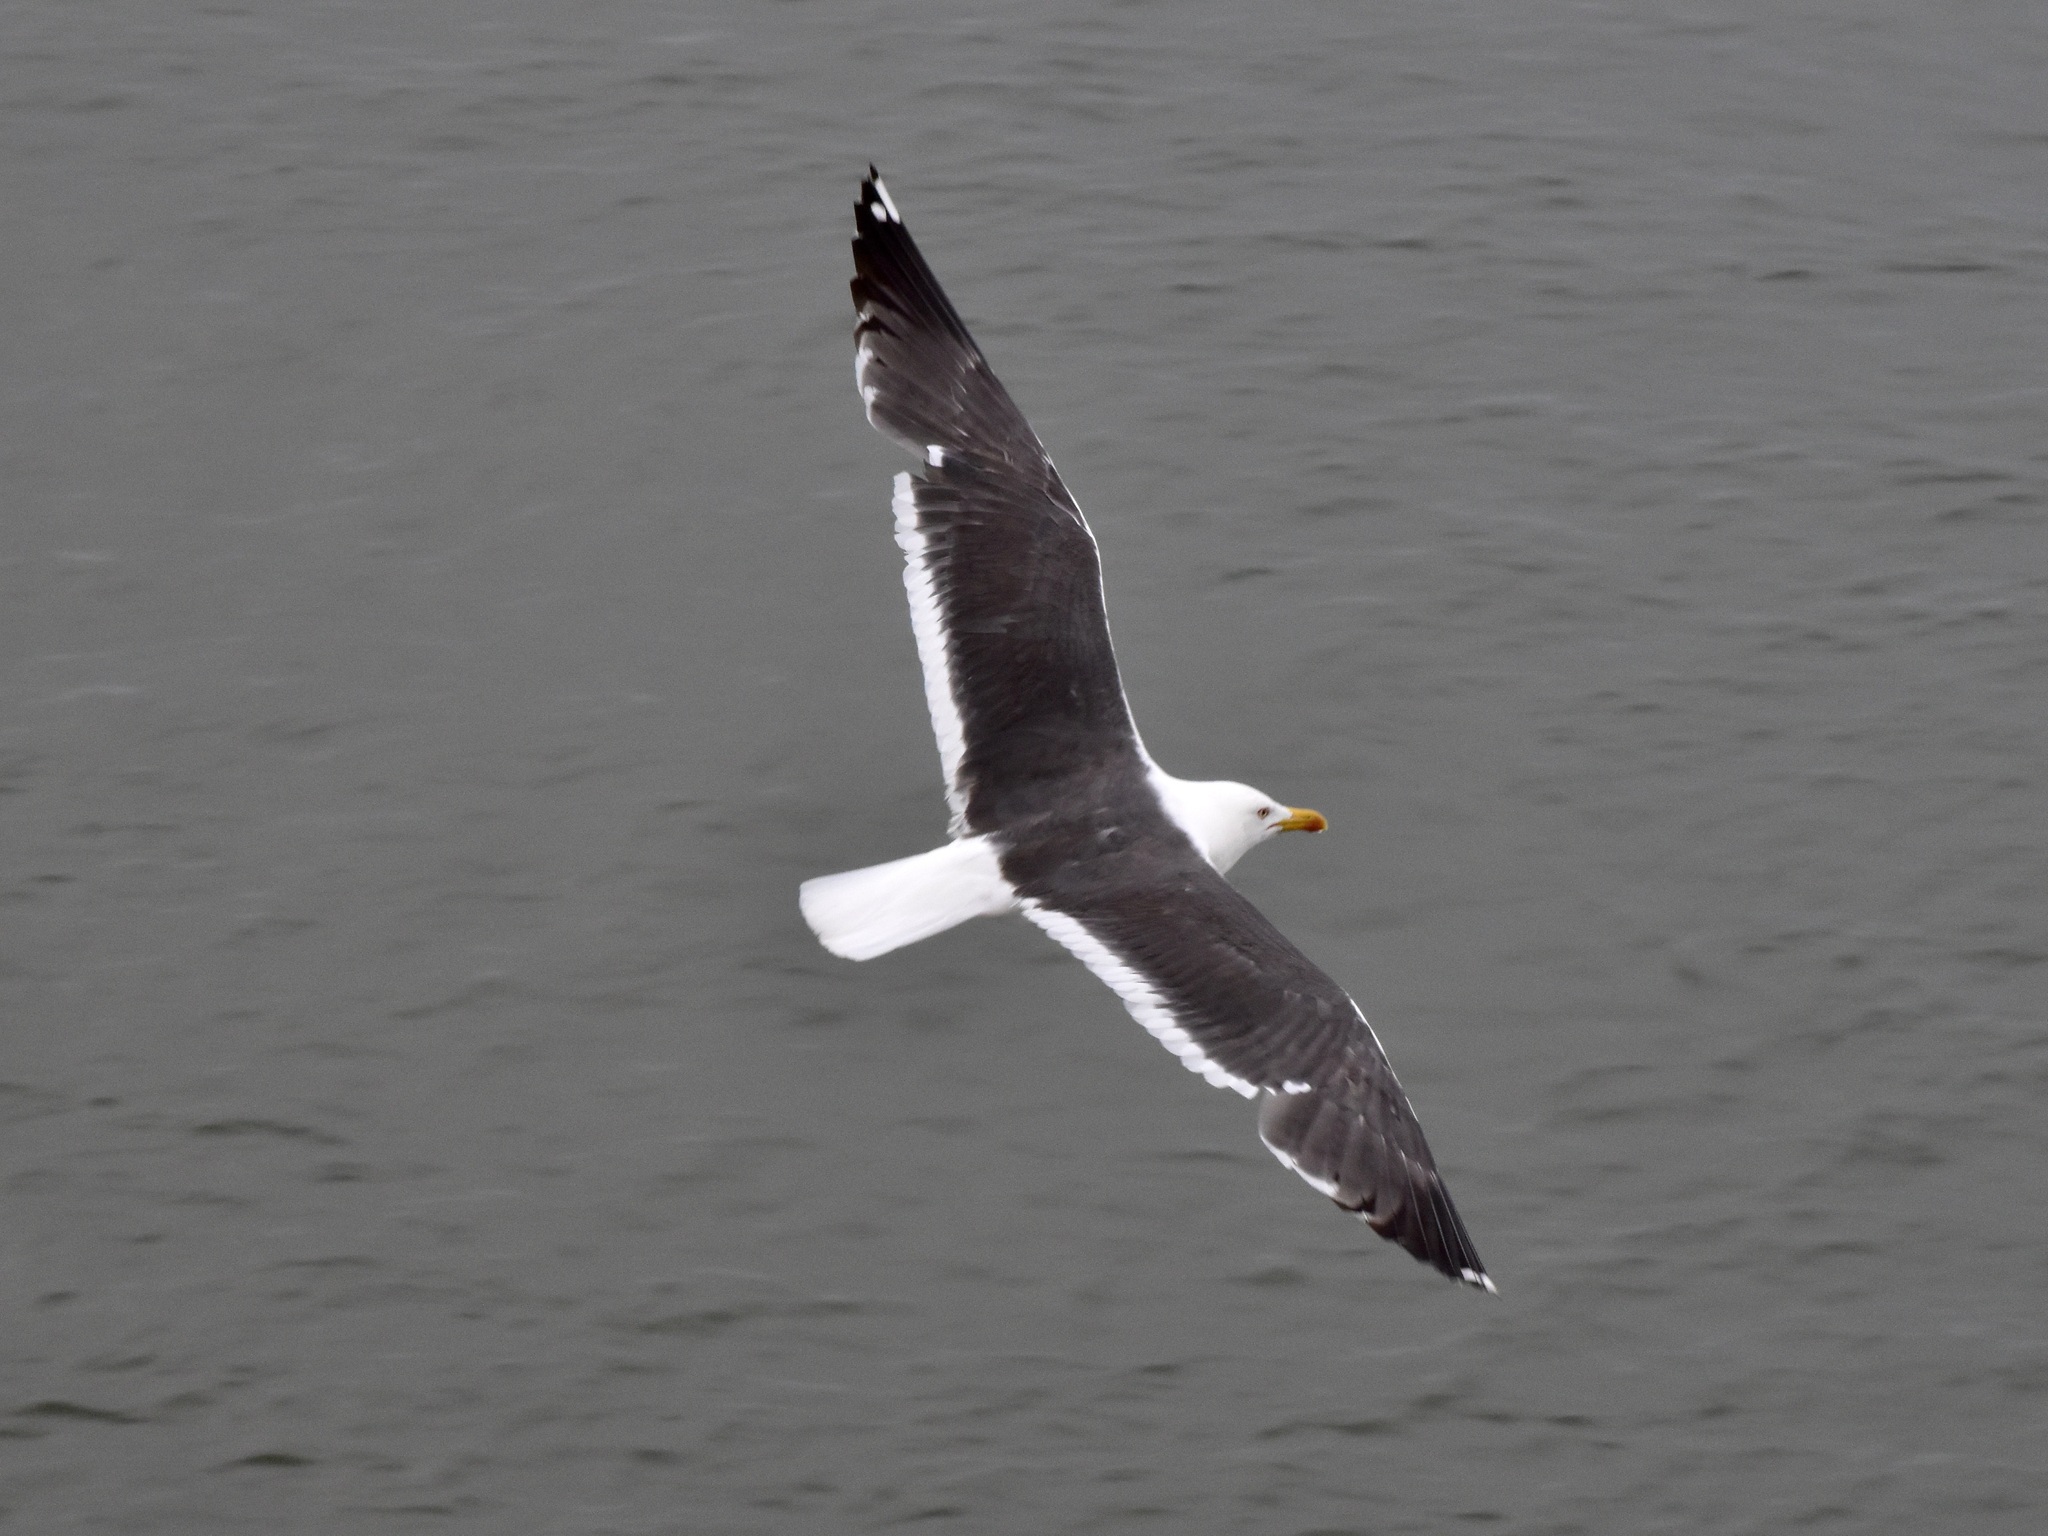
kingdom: Animalia
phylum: Chordata
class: Aves
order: Charadriiformes
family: Laridae
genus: Larus
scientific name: Larus fuscus
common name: Lesser black-backed gull
